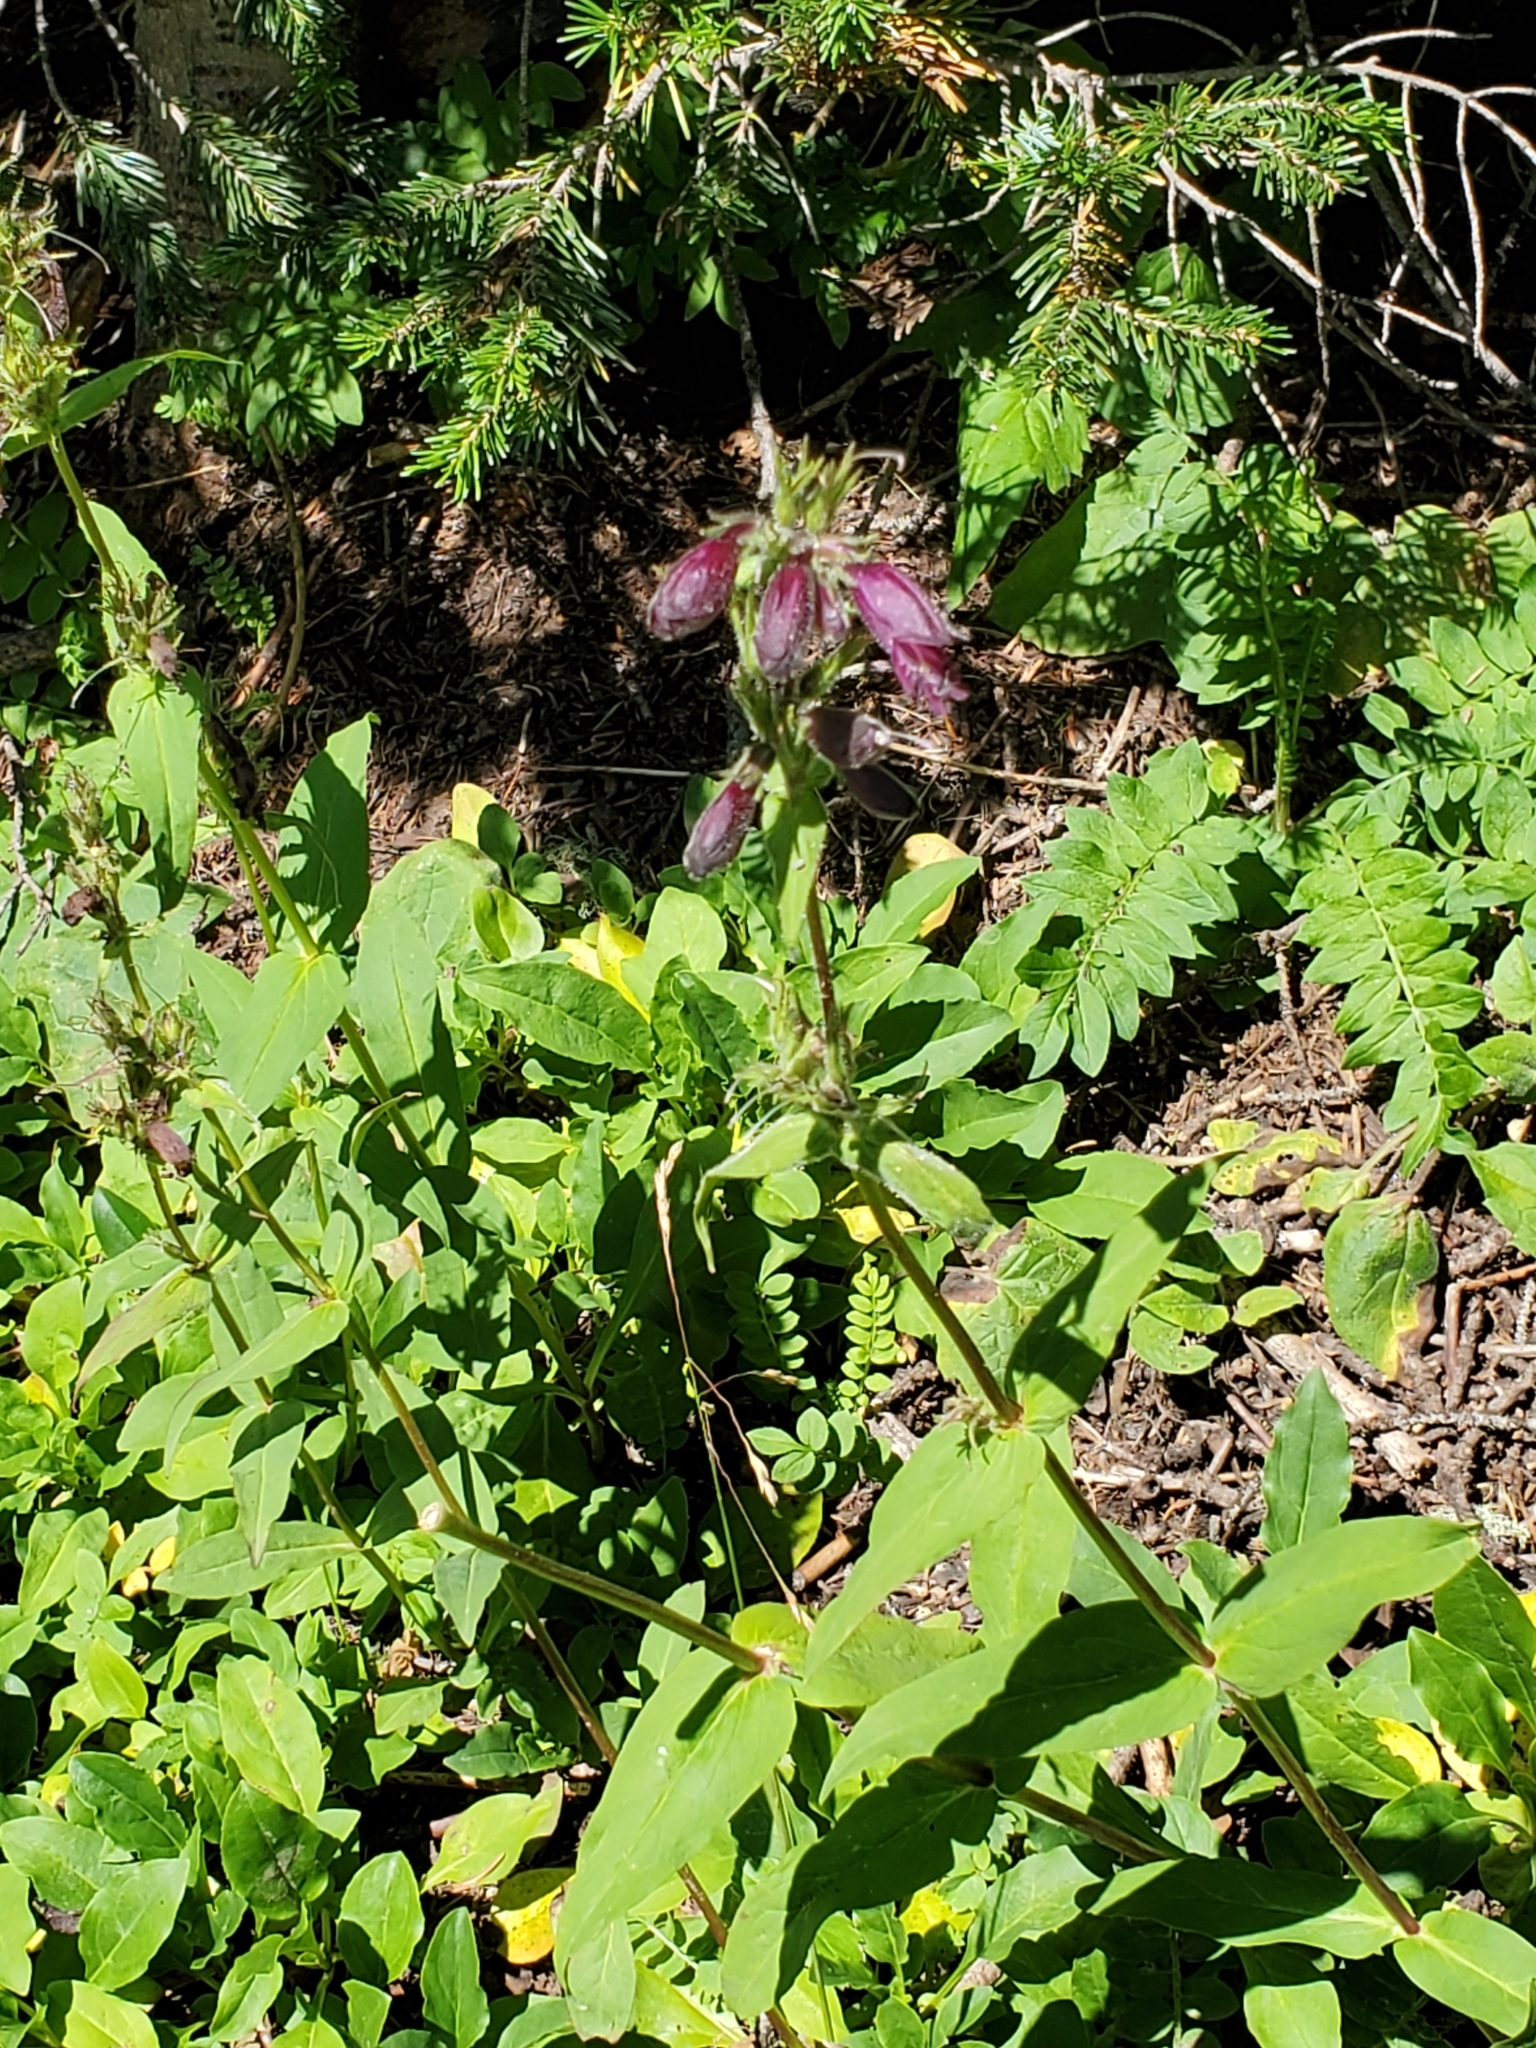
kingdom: Plantae
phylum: Tracheophyta
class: Magnoliopsida
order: Lamiales
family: Plantaginaceae
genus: Penstemon
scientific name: Penstemon whippleanus
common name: Whipple's penstemon
